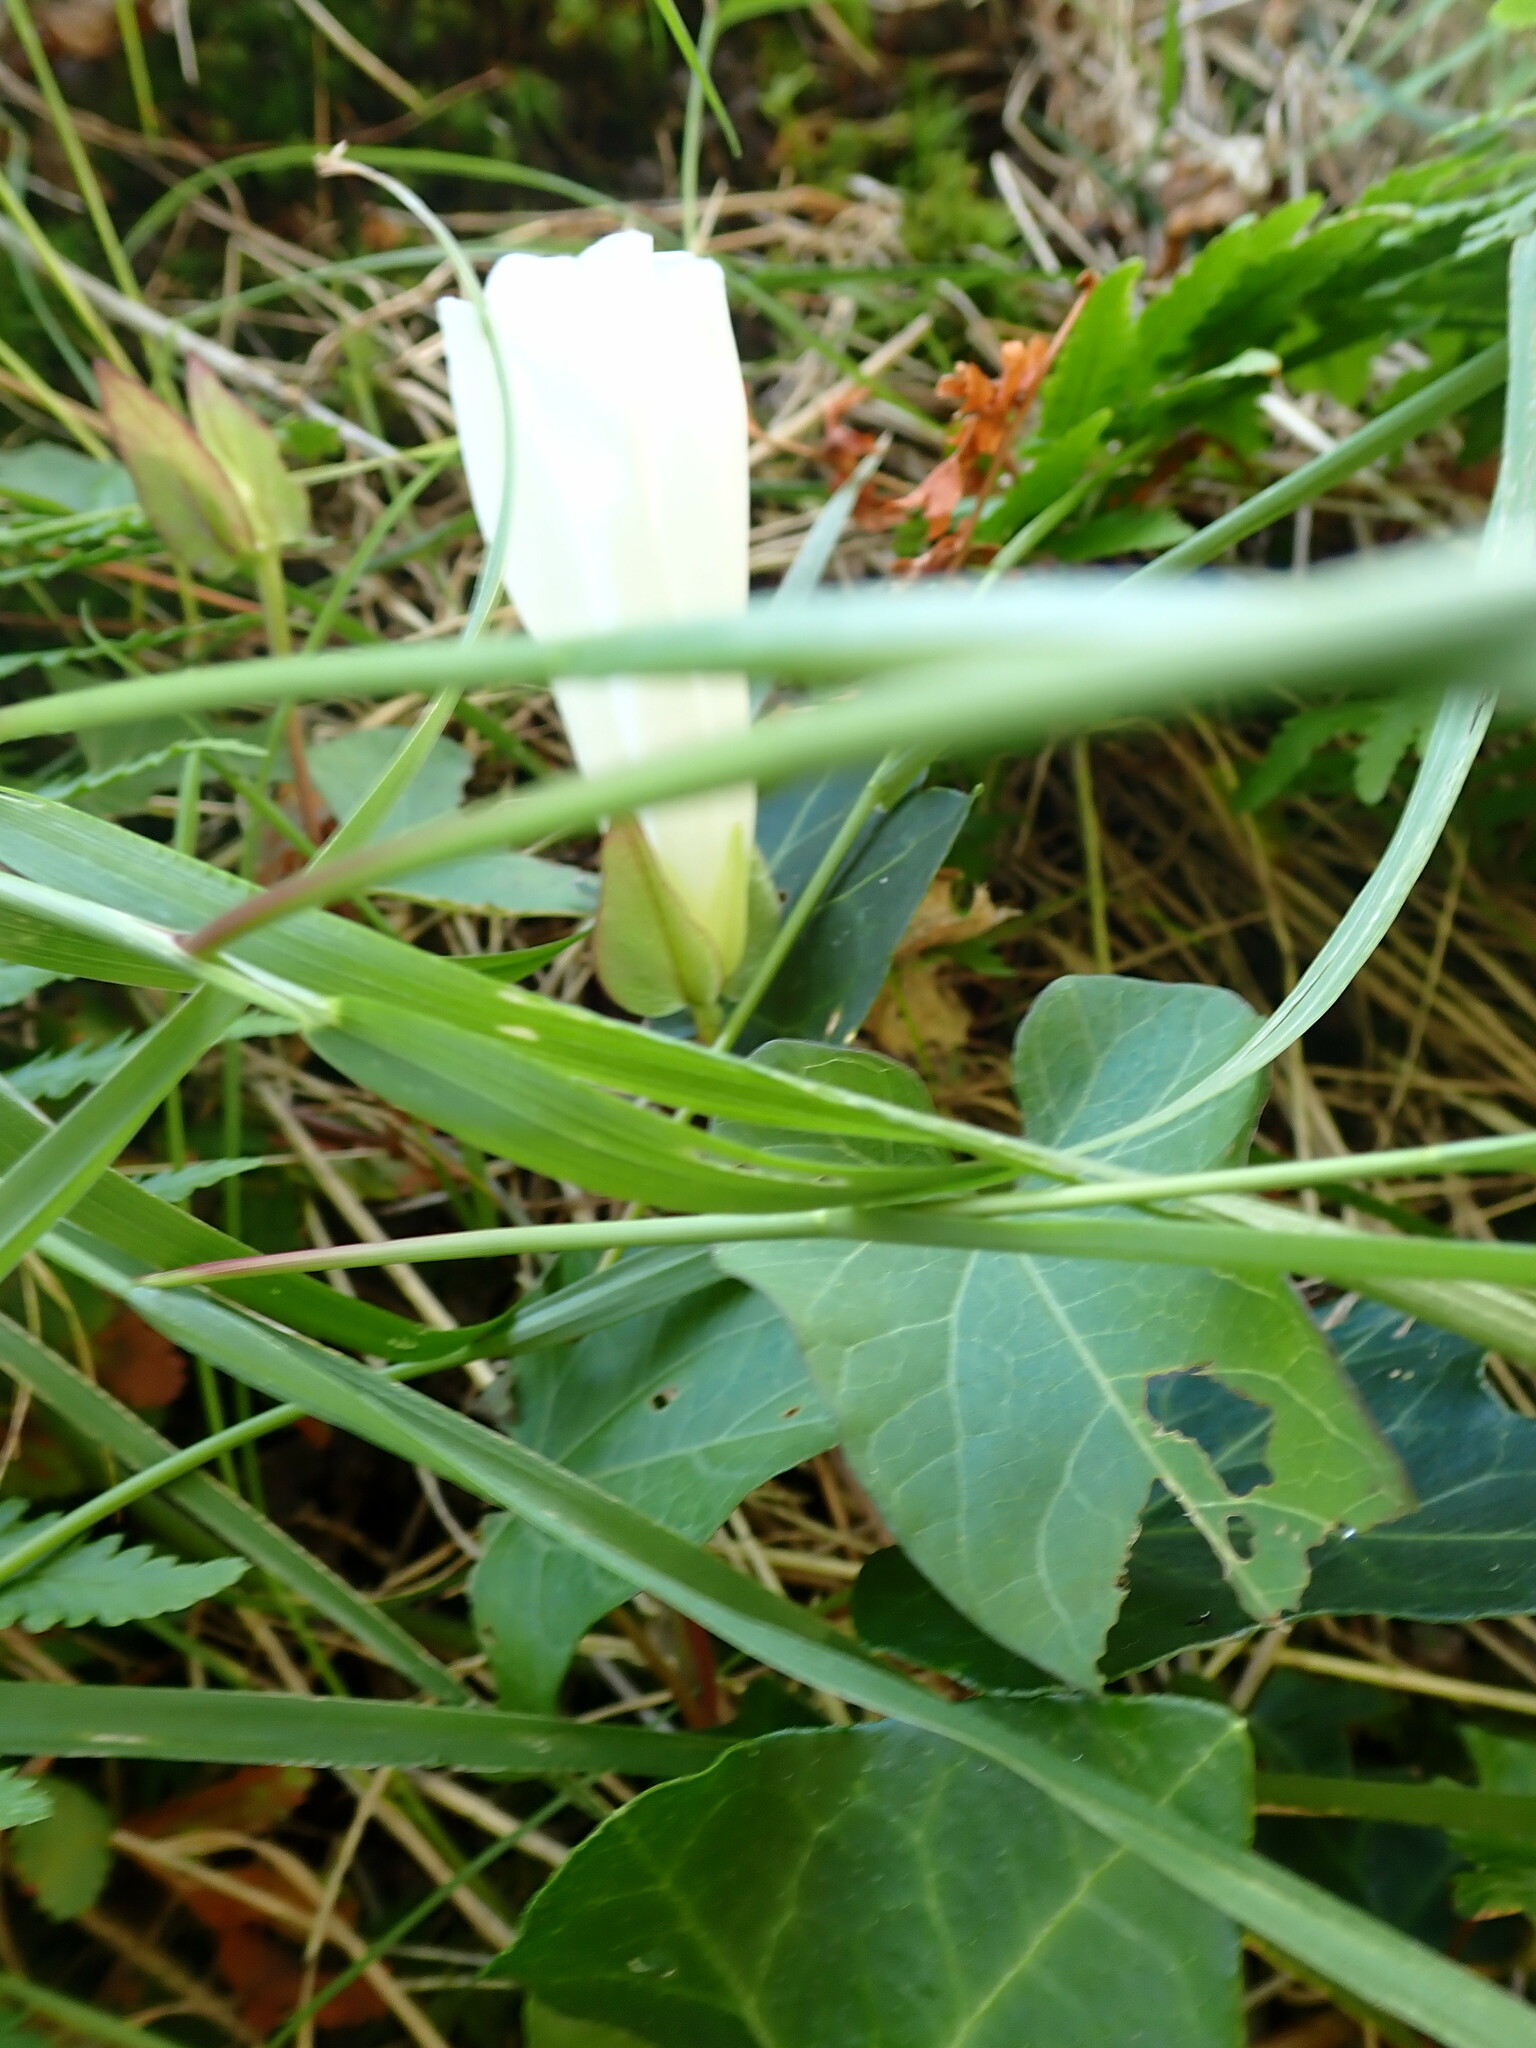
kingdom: Plantae
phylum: Tracheophyta
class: Magnoliopsida
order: Solanales
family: Convolvulaceae
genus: Calystegia
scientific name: Calystegia sepium
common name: Hedge bindweed
